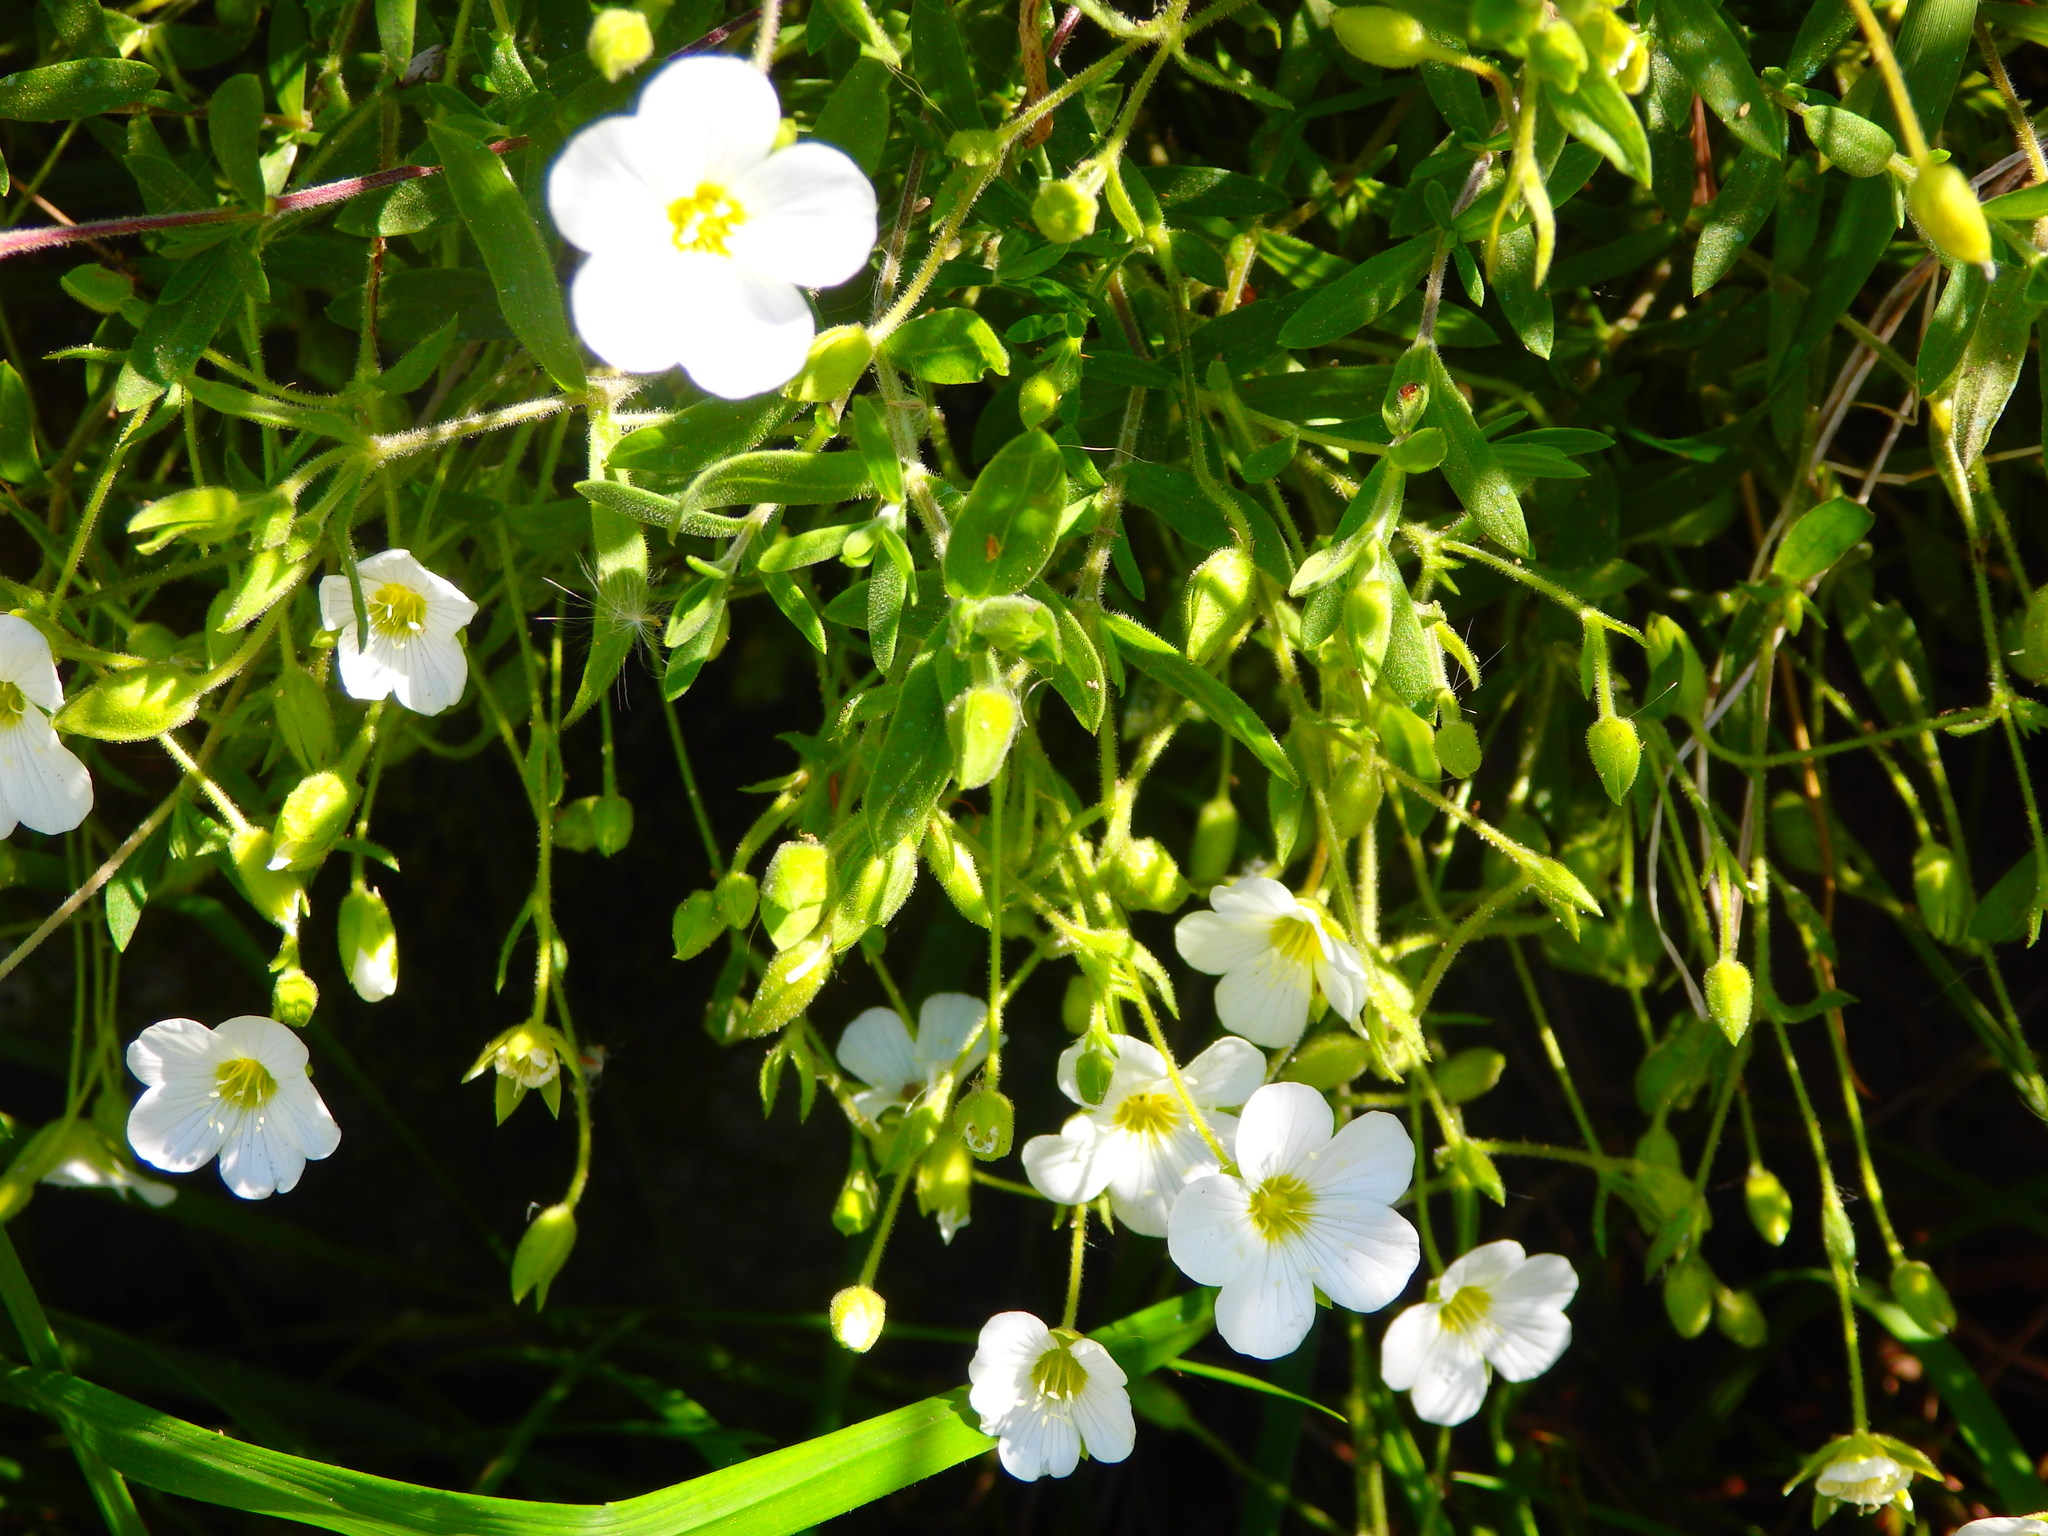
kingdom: Plantae
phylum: Tracheophyta
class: Magnoliopsida
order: Caryophyllales
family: Caryophyllaceae
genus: Arenaria
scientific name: Arenaria montana
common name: Mountain sandwort
